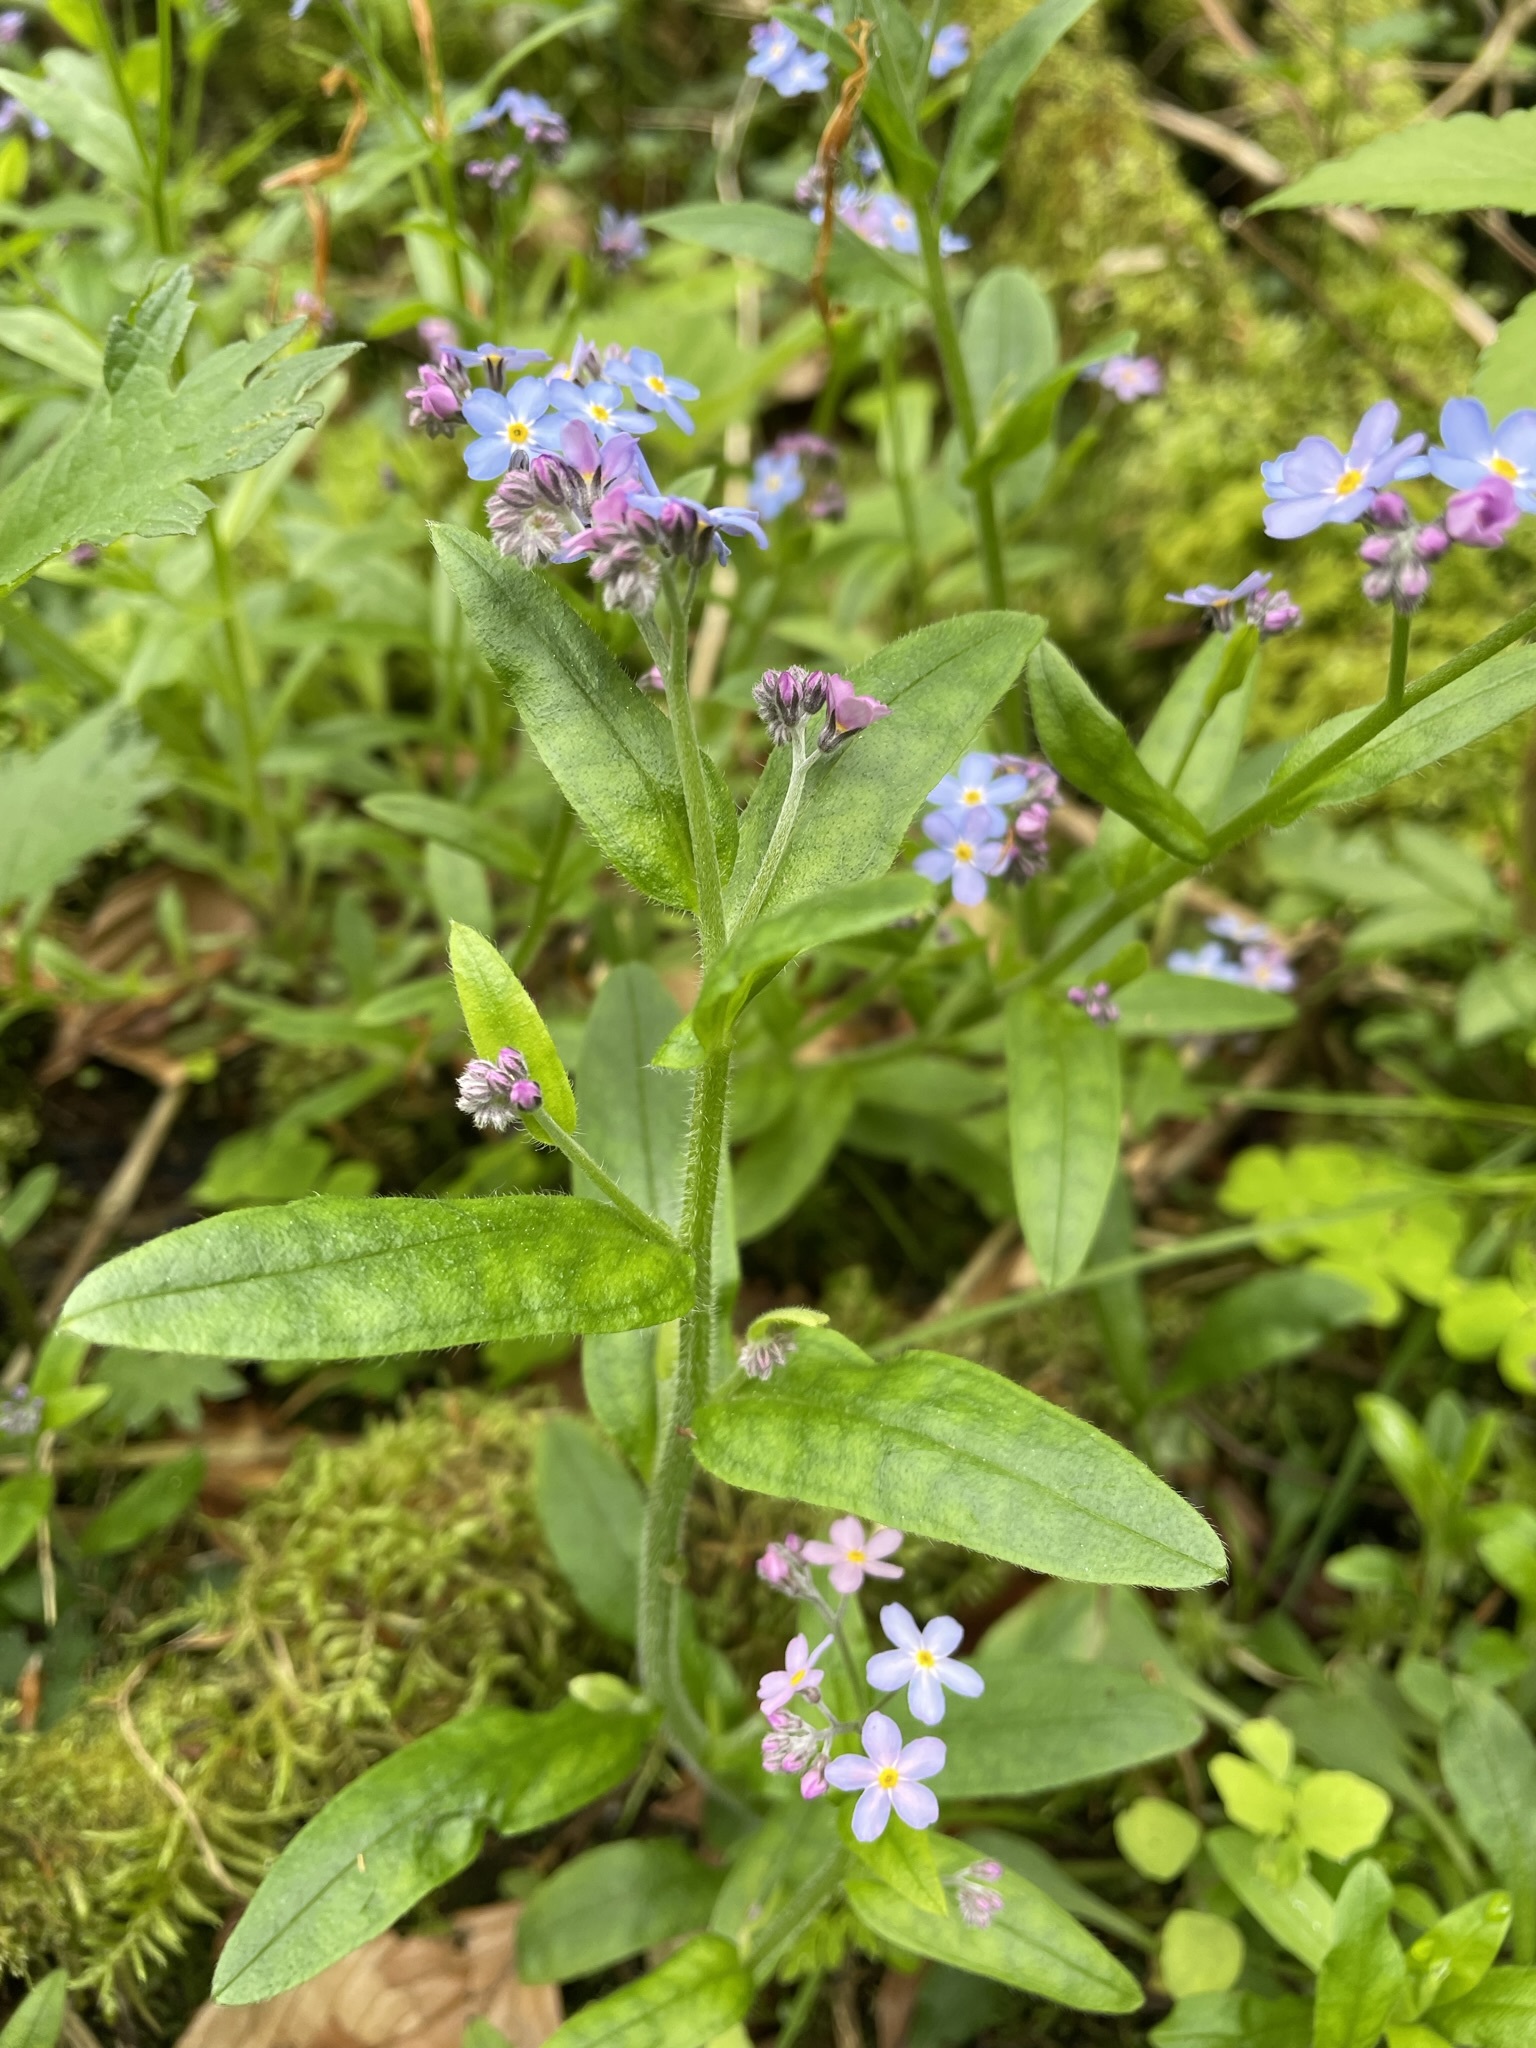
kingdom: Plantae
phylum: Tracheophyta
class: Magnoliopsida
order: Boraginales
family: Boraginaceae
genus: Myosotis
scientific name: Myosotis sylvatica
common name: Wood forget-me-not
